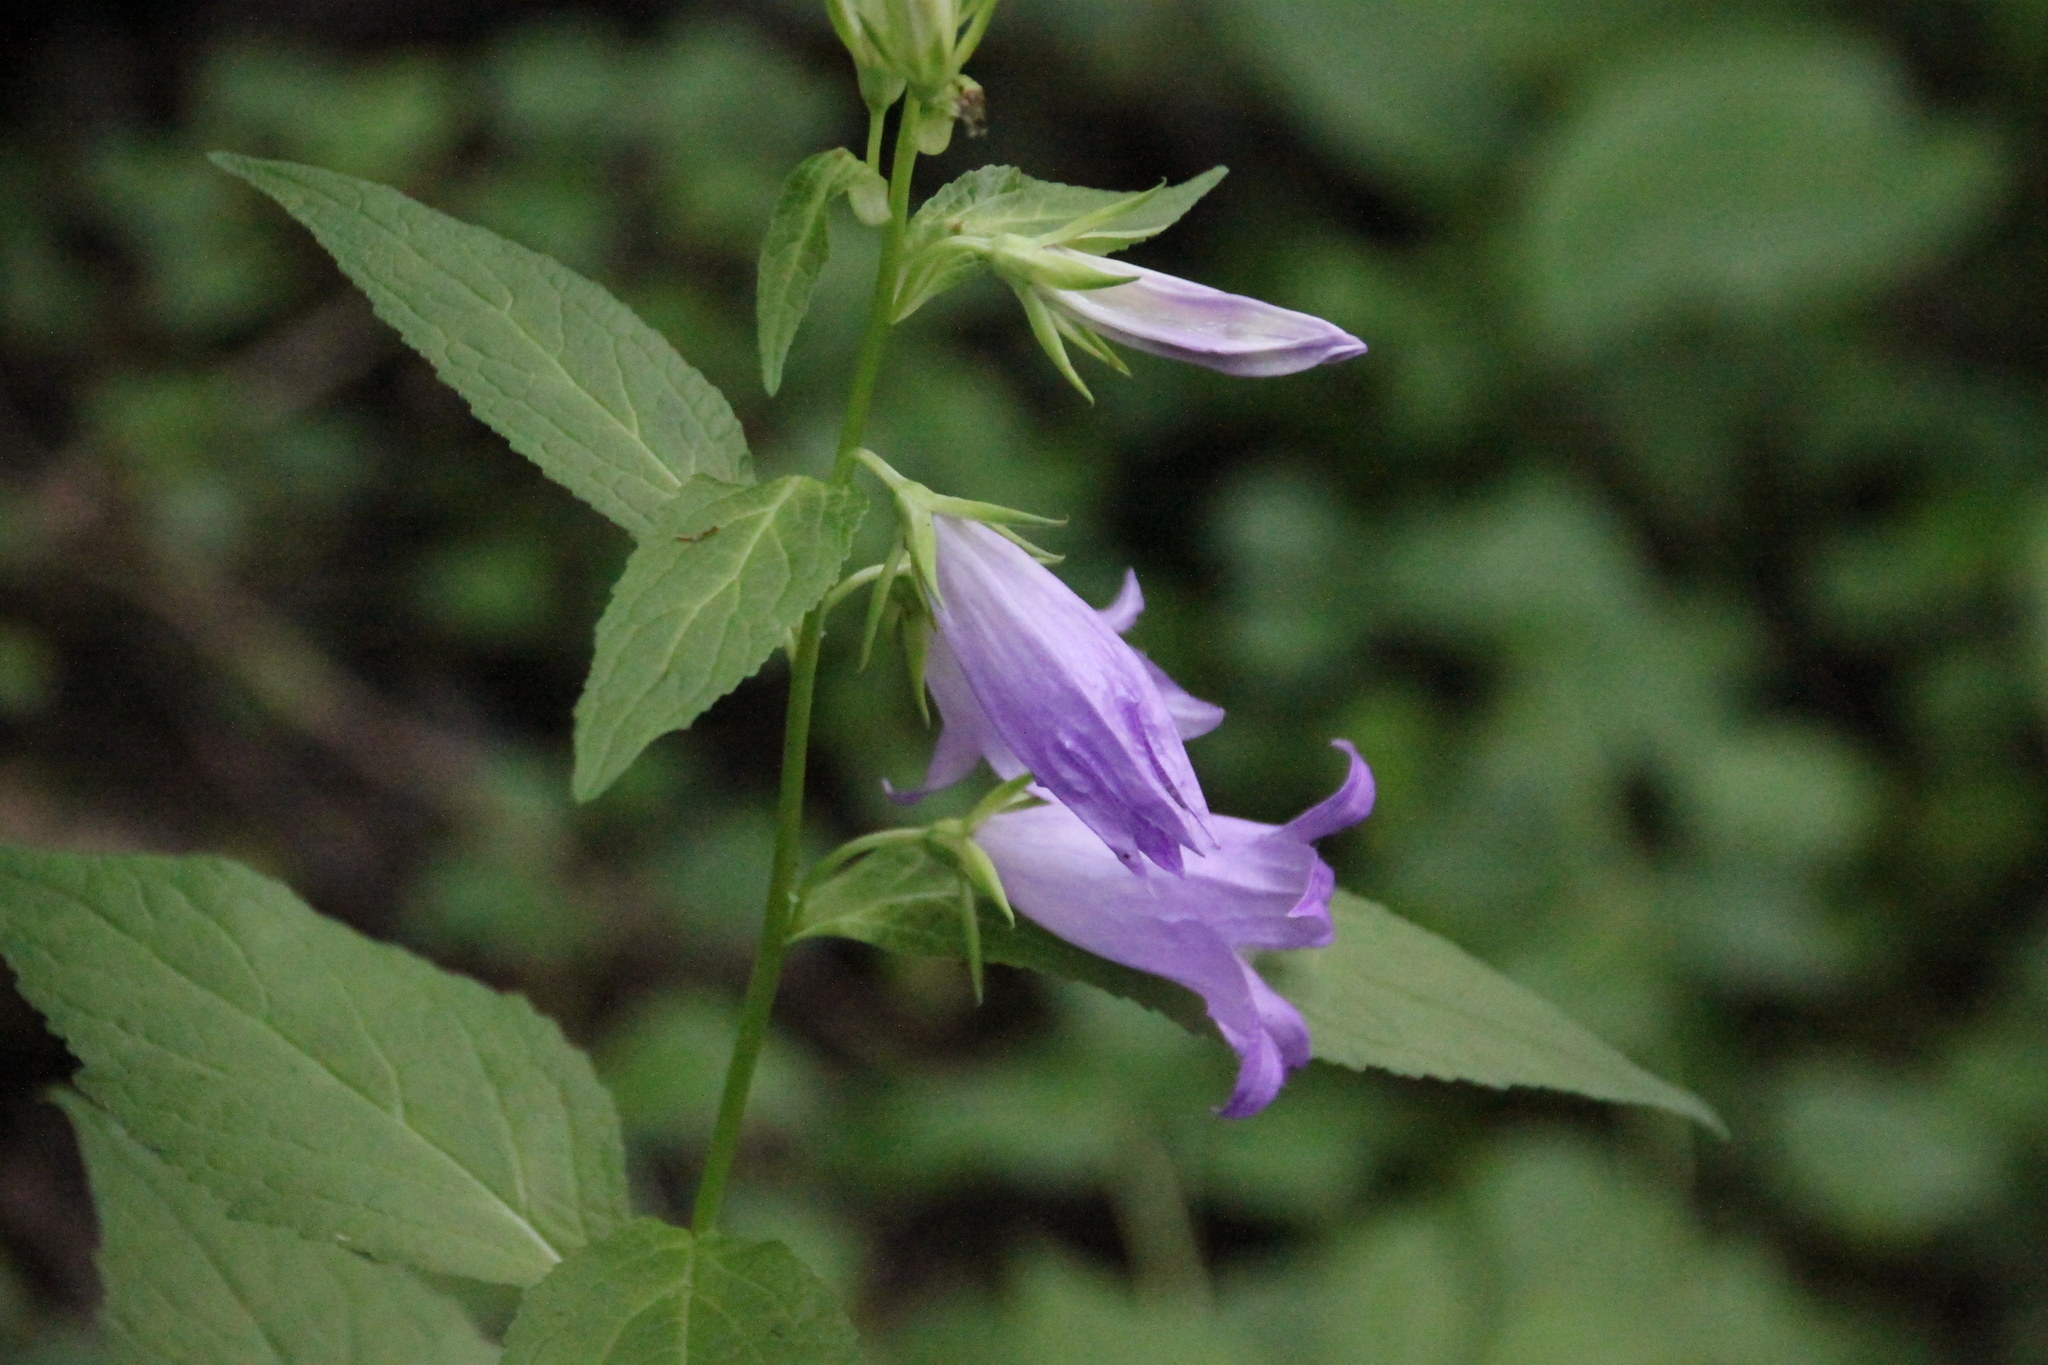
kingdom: Plantae
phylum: Tracheophyta
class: Magnoliopsida
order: Asterales
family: Campanulaceae
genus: Campanula
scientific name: Campanula latifolia
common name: Giant bellflower
